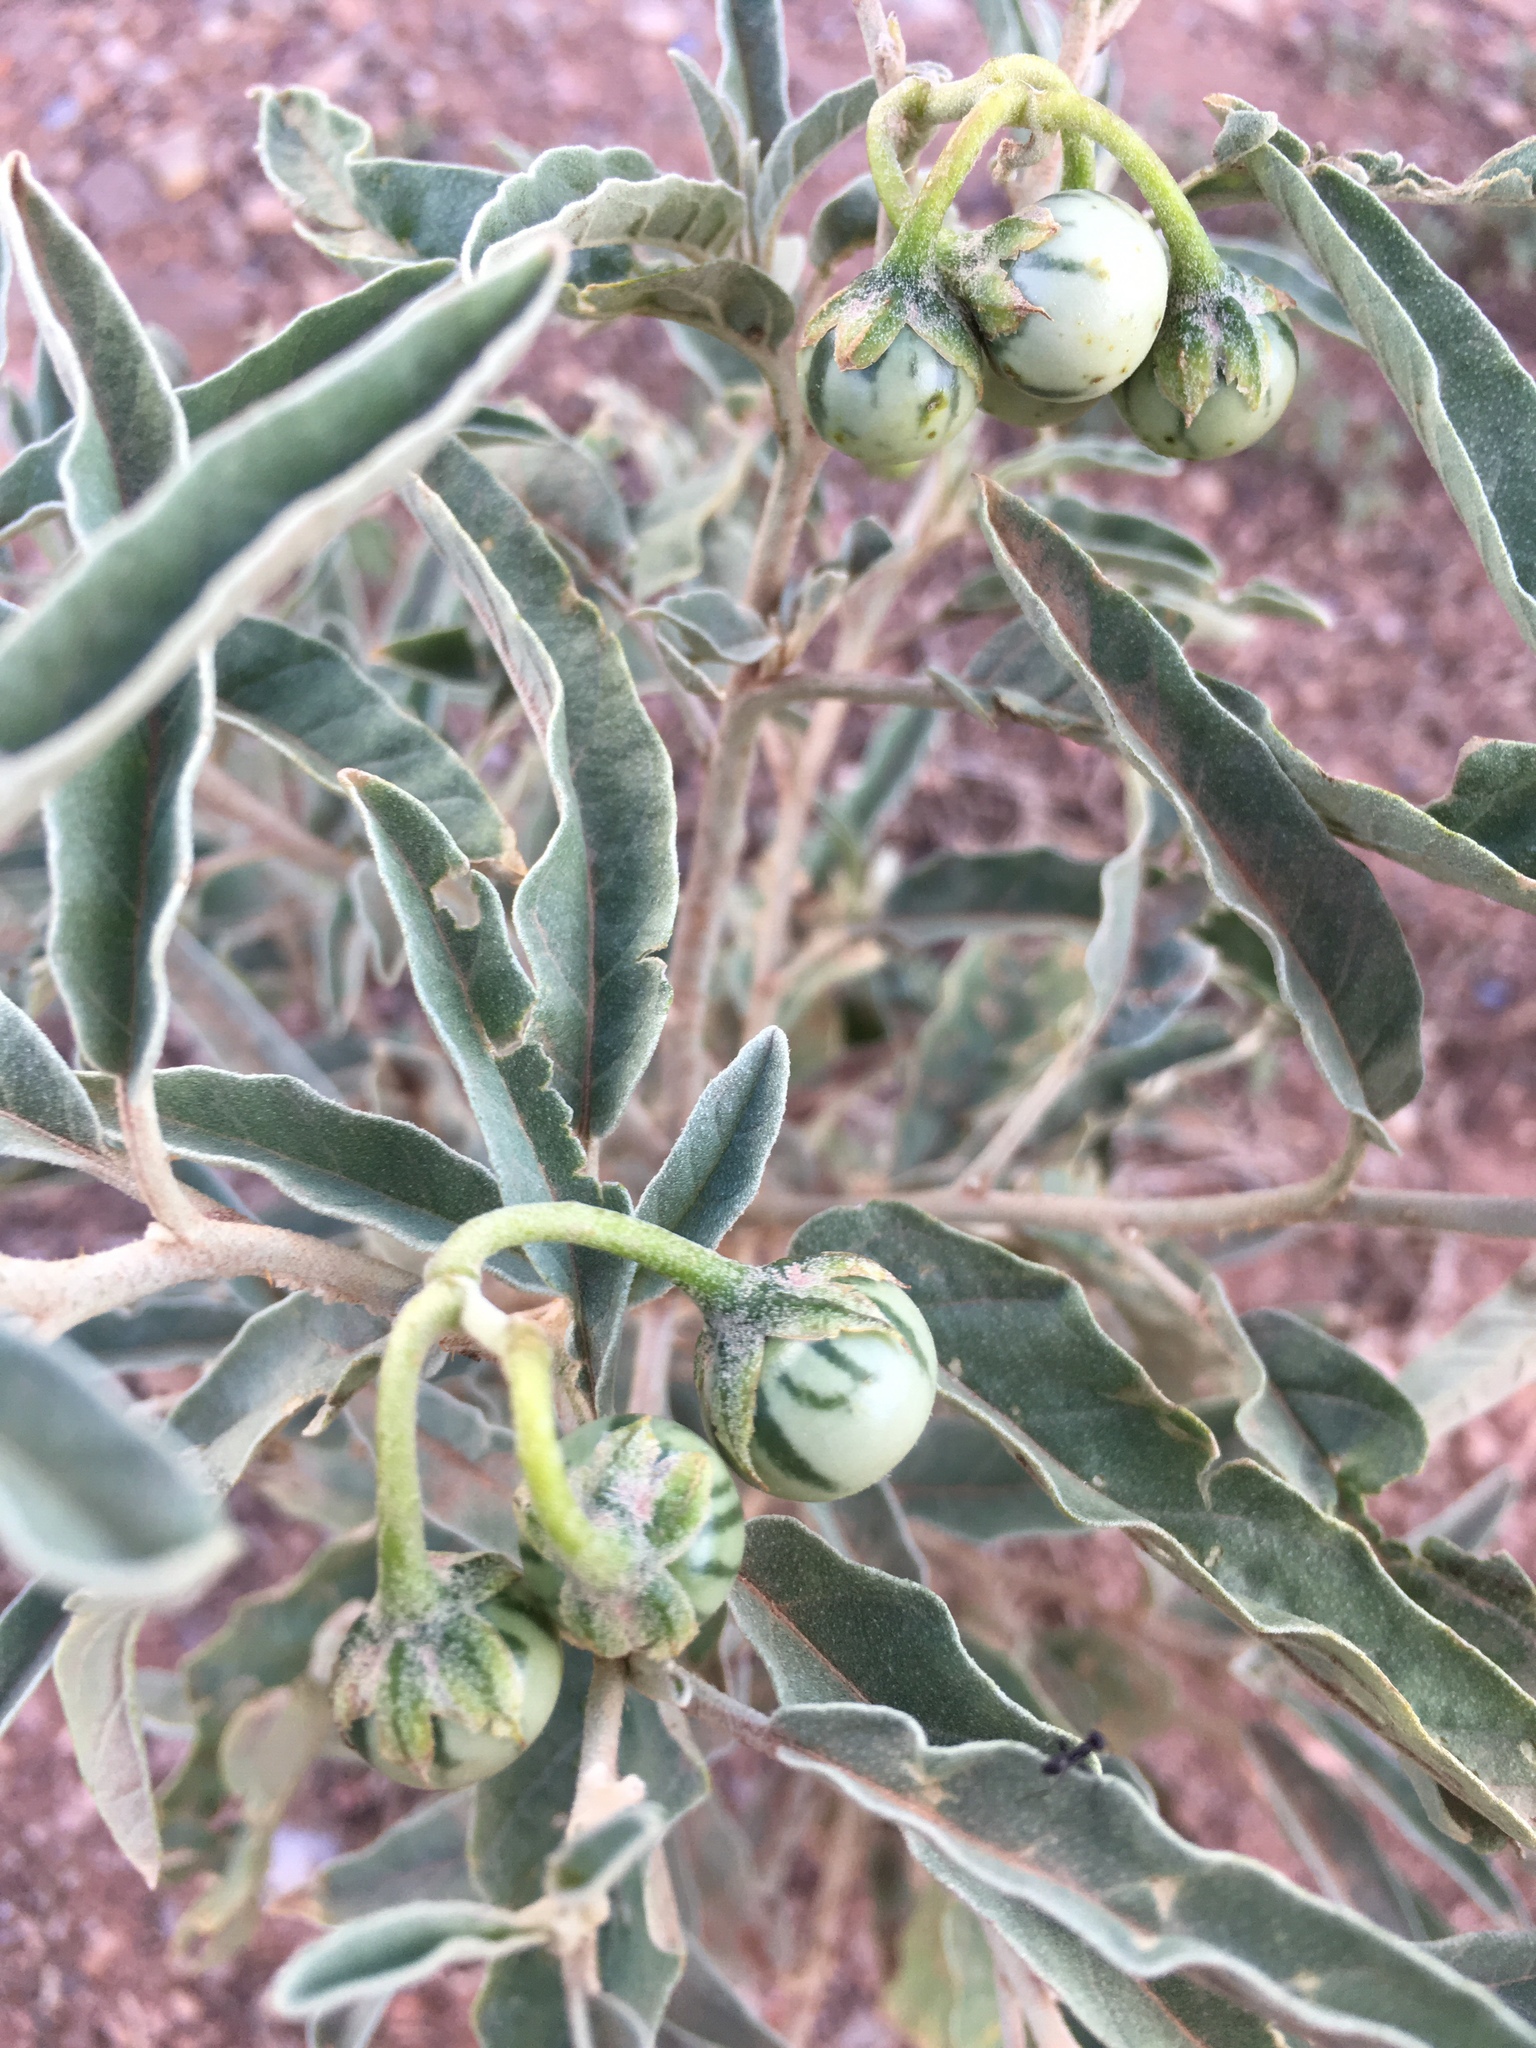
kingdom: Plantae
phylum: Tracheophyta
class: Magnoliopsida
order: Solanales
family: Solanaceae
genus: Solanum
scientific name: Solanum elaeagnifolium
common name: Silverleaf nightshade
